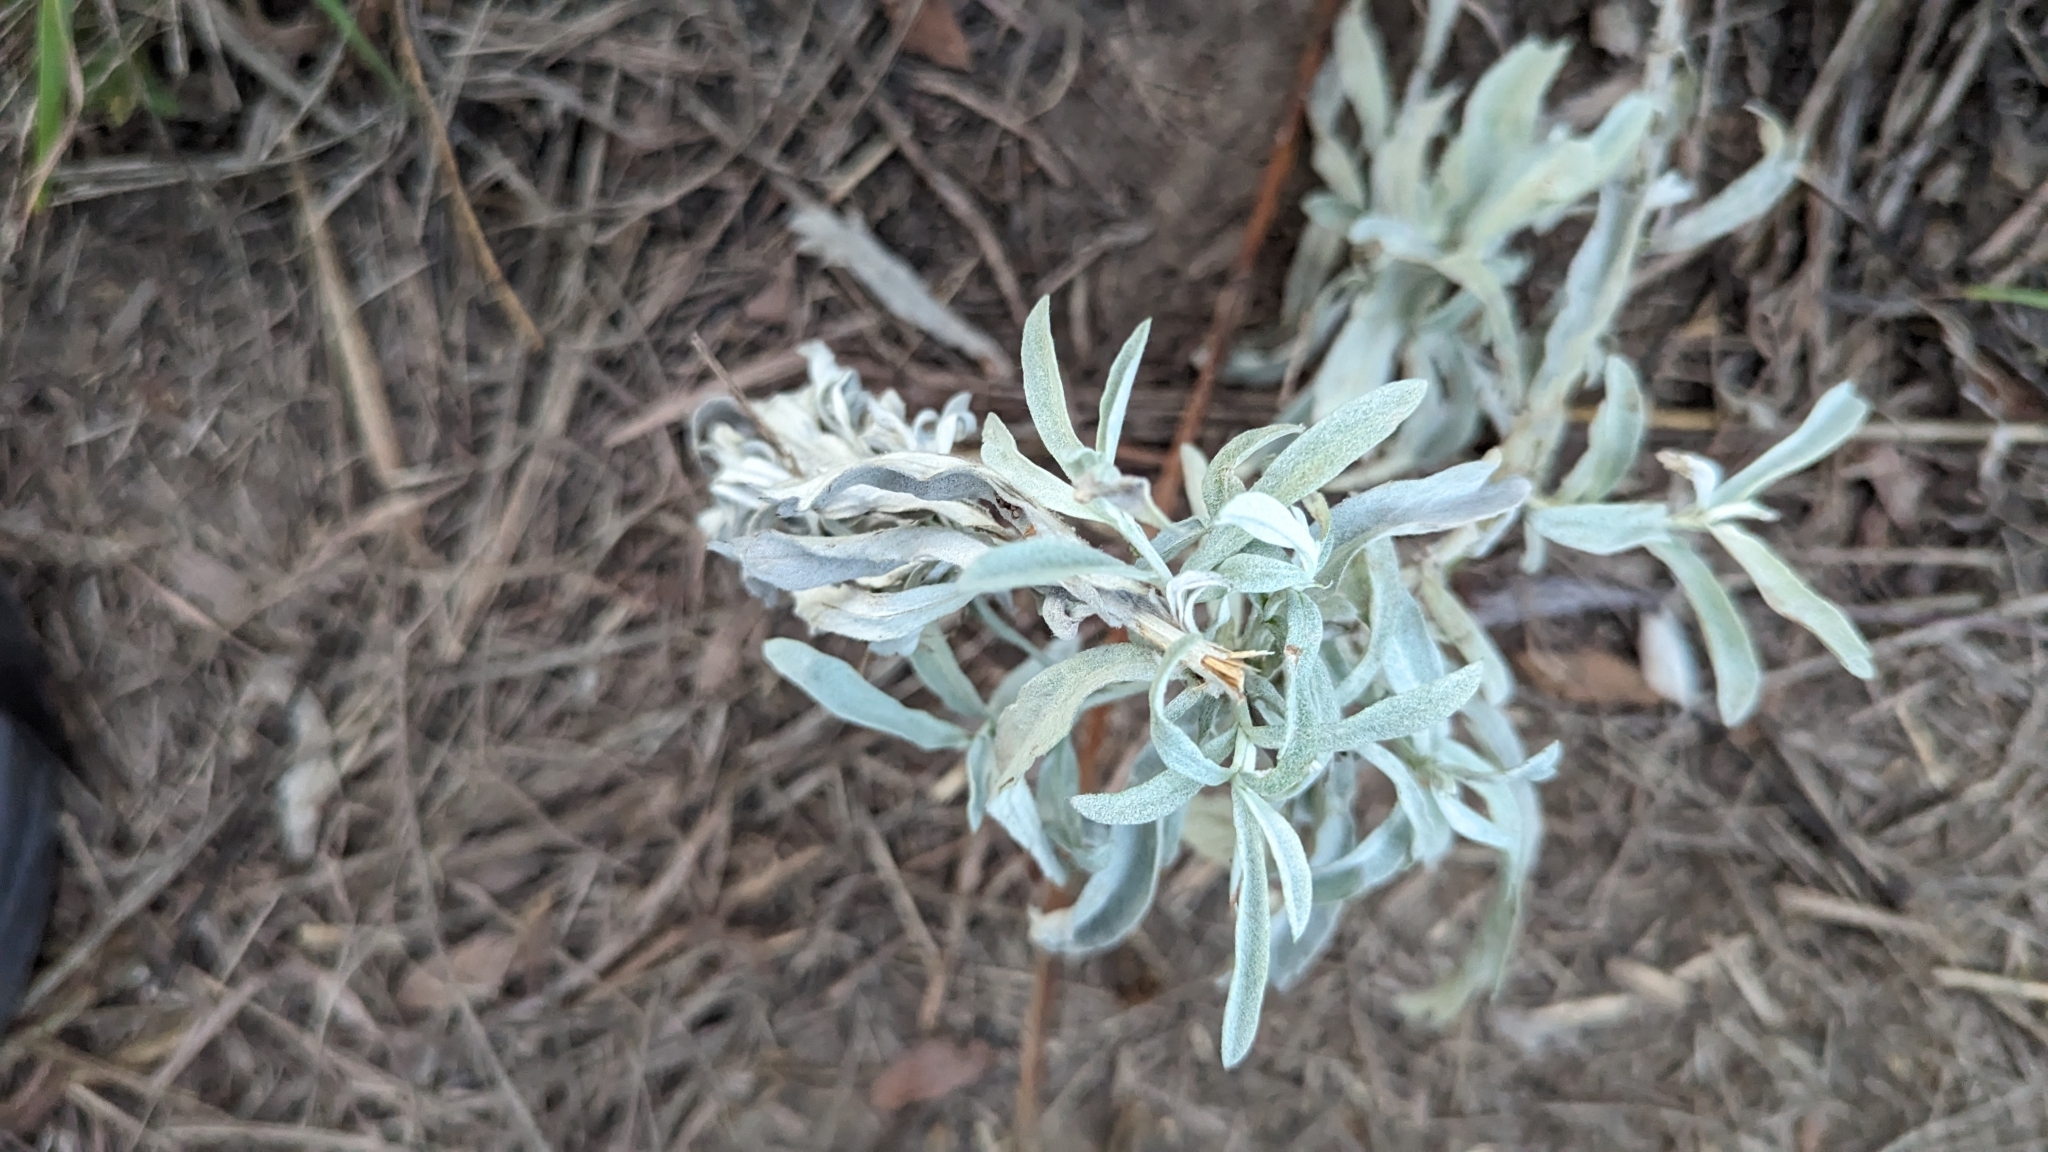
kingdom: Plantae
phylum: Tracheophyta
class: Magnoliopsida
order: Asterales
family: Asteraceae
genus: Artemisia
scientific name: Artemisia ludoviciana
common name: Western mugwort
